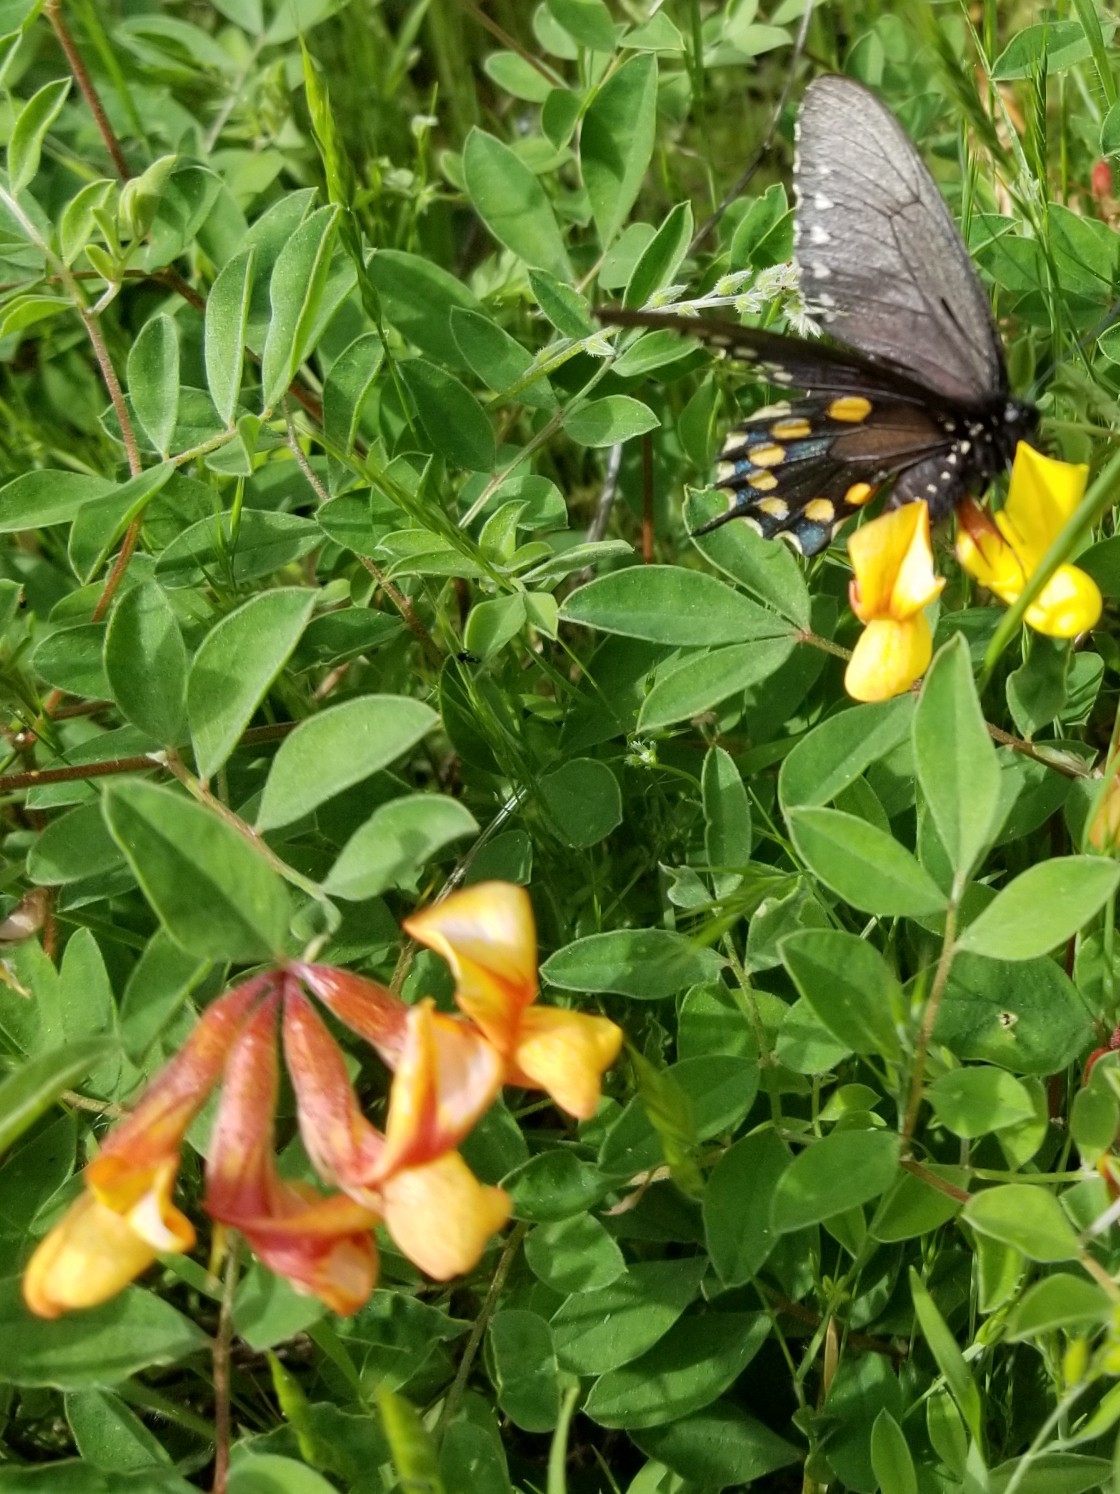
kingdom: Animalia
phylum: Arthropoda
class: Insecta
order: Lepidoptera
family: Papilionidae
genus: Battus
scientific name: Battus philenor
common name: Pipevine swallowtail
